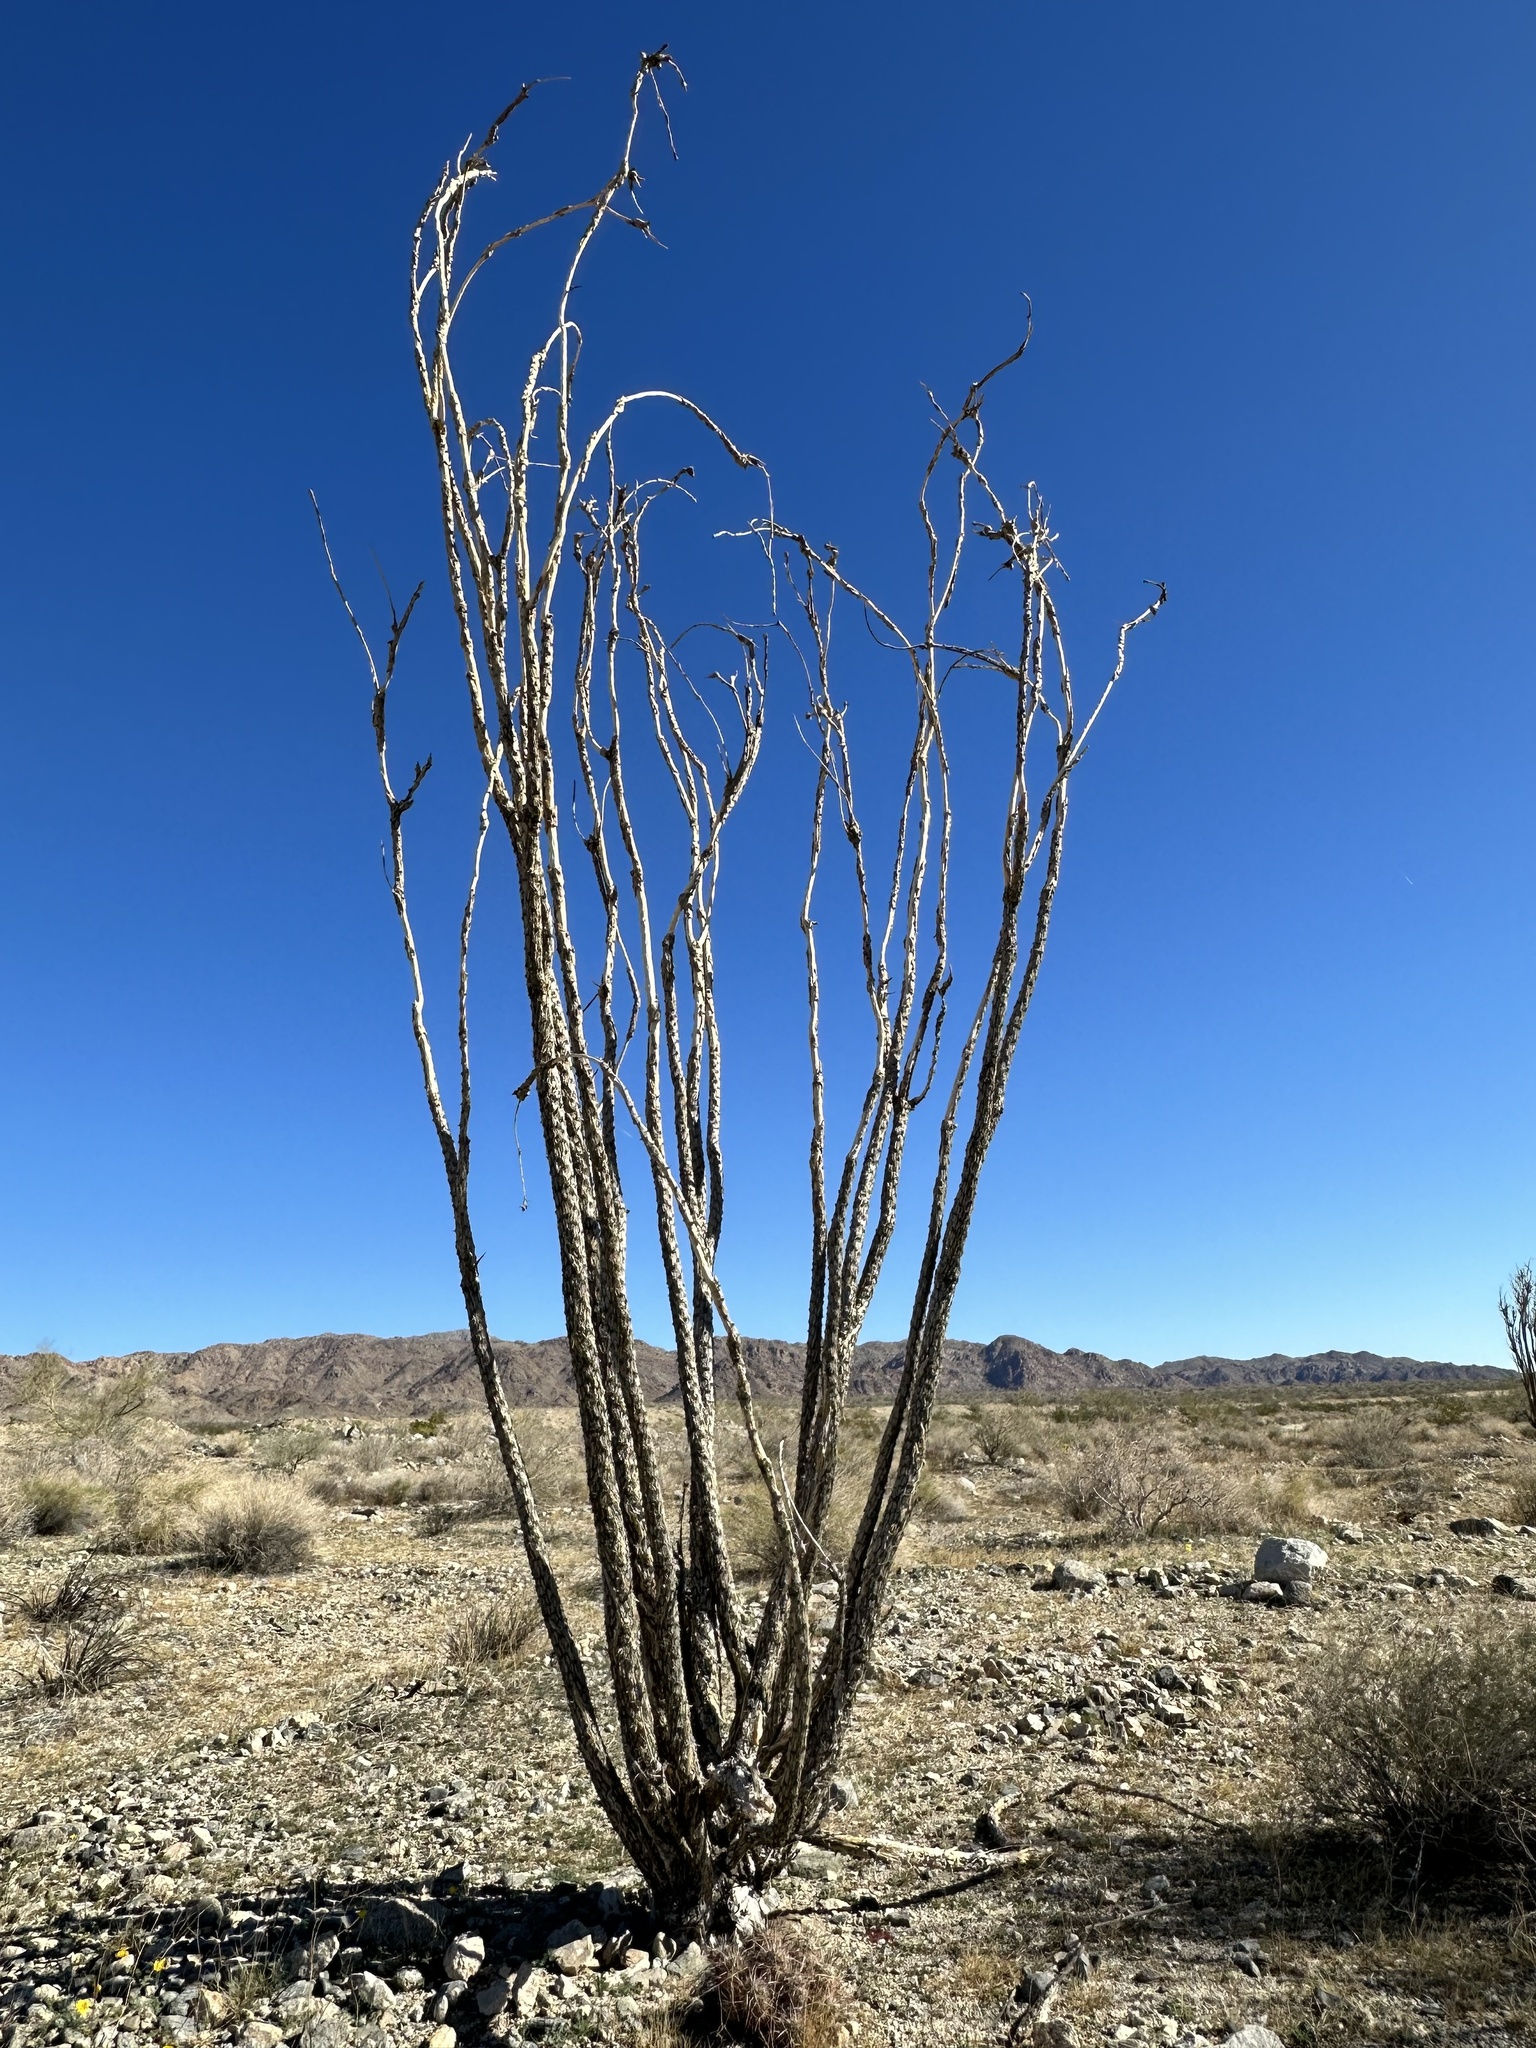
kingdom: Plantae
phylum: Tracheophyta
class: Magnoliopsida
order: Ericales
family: Fouquieriaceae
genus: Fouquieria
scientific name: Fouquieria splendens
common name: Vine-cactus
